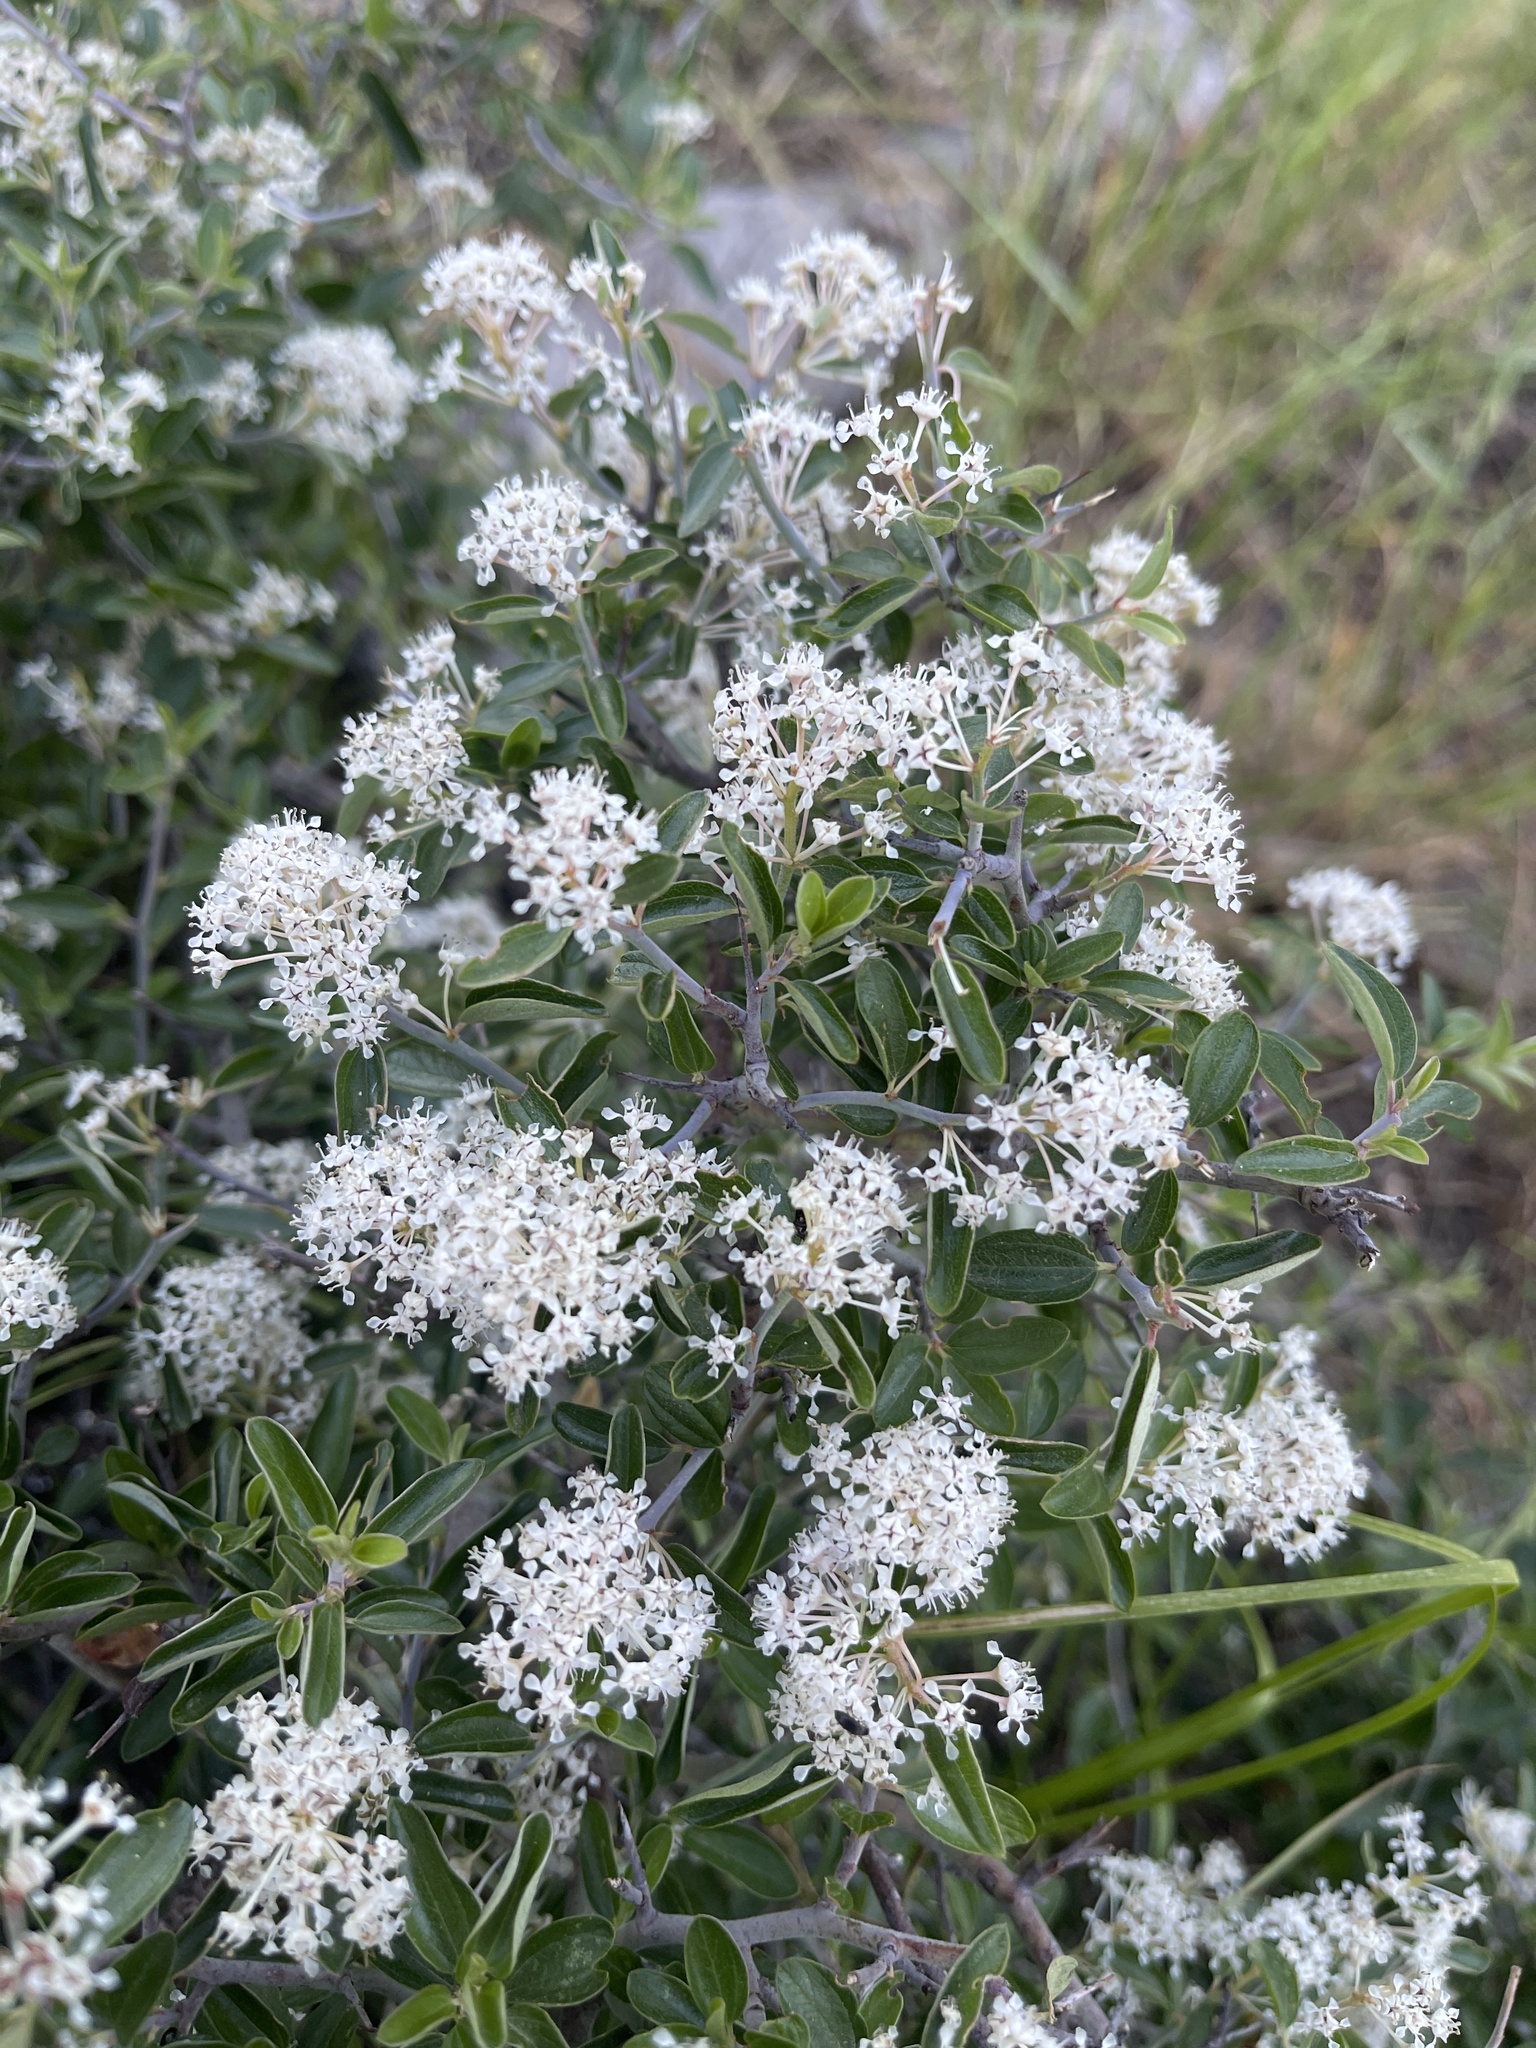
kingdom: Plantae
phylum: Tracheophyta
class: Magnoliopsida
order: Rosales
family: Rhamnaceae
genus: Ceanothus
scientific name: Ceanothus fendleri
